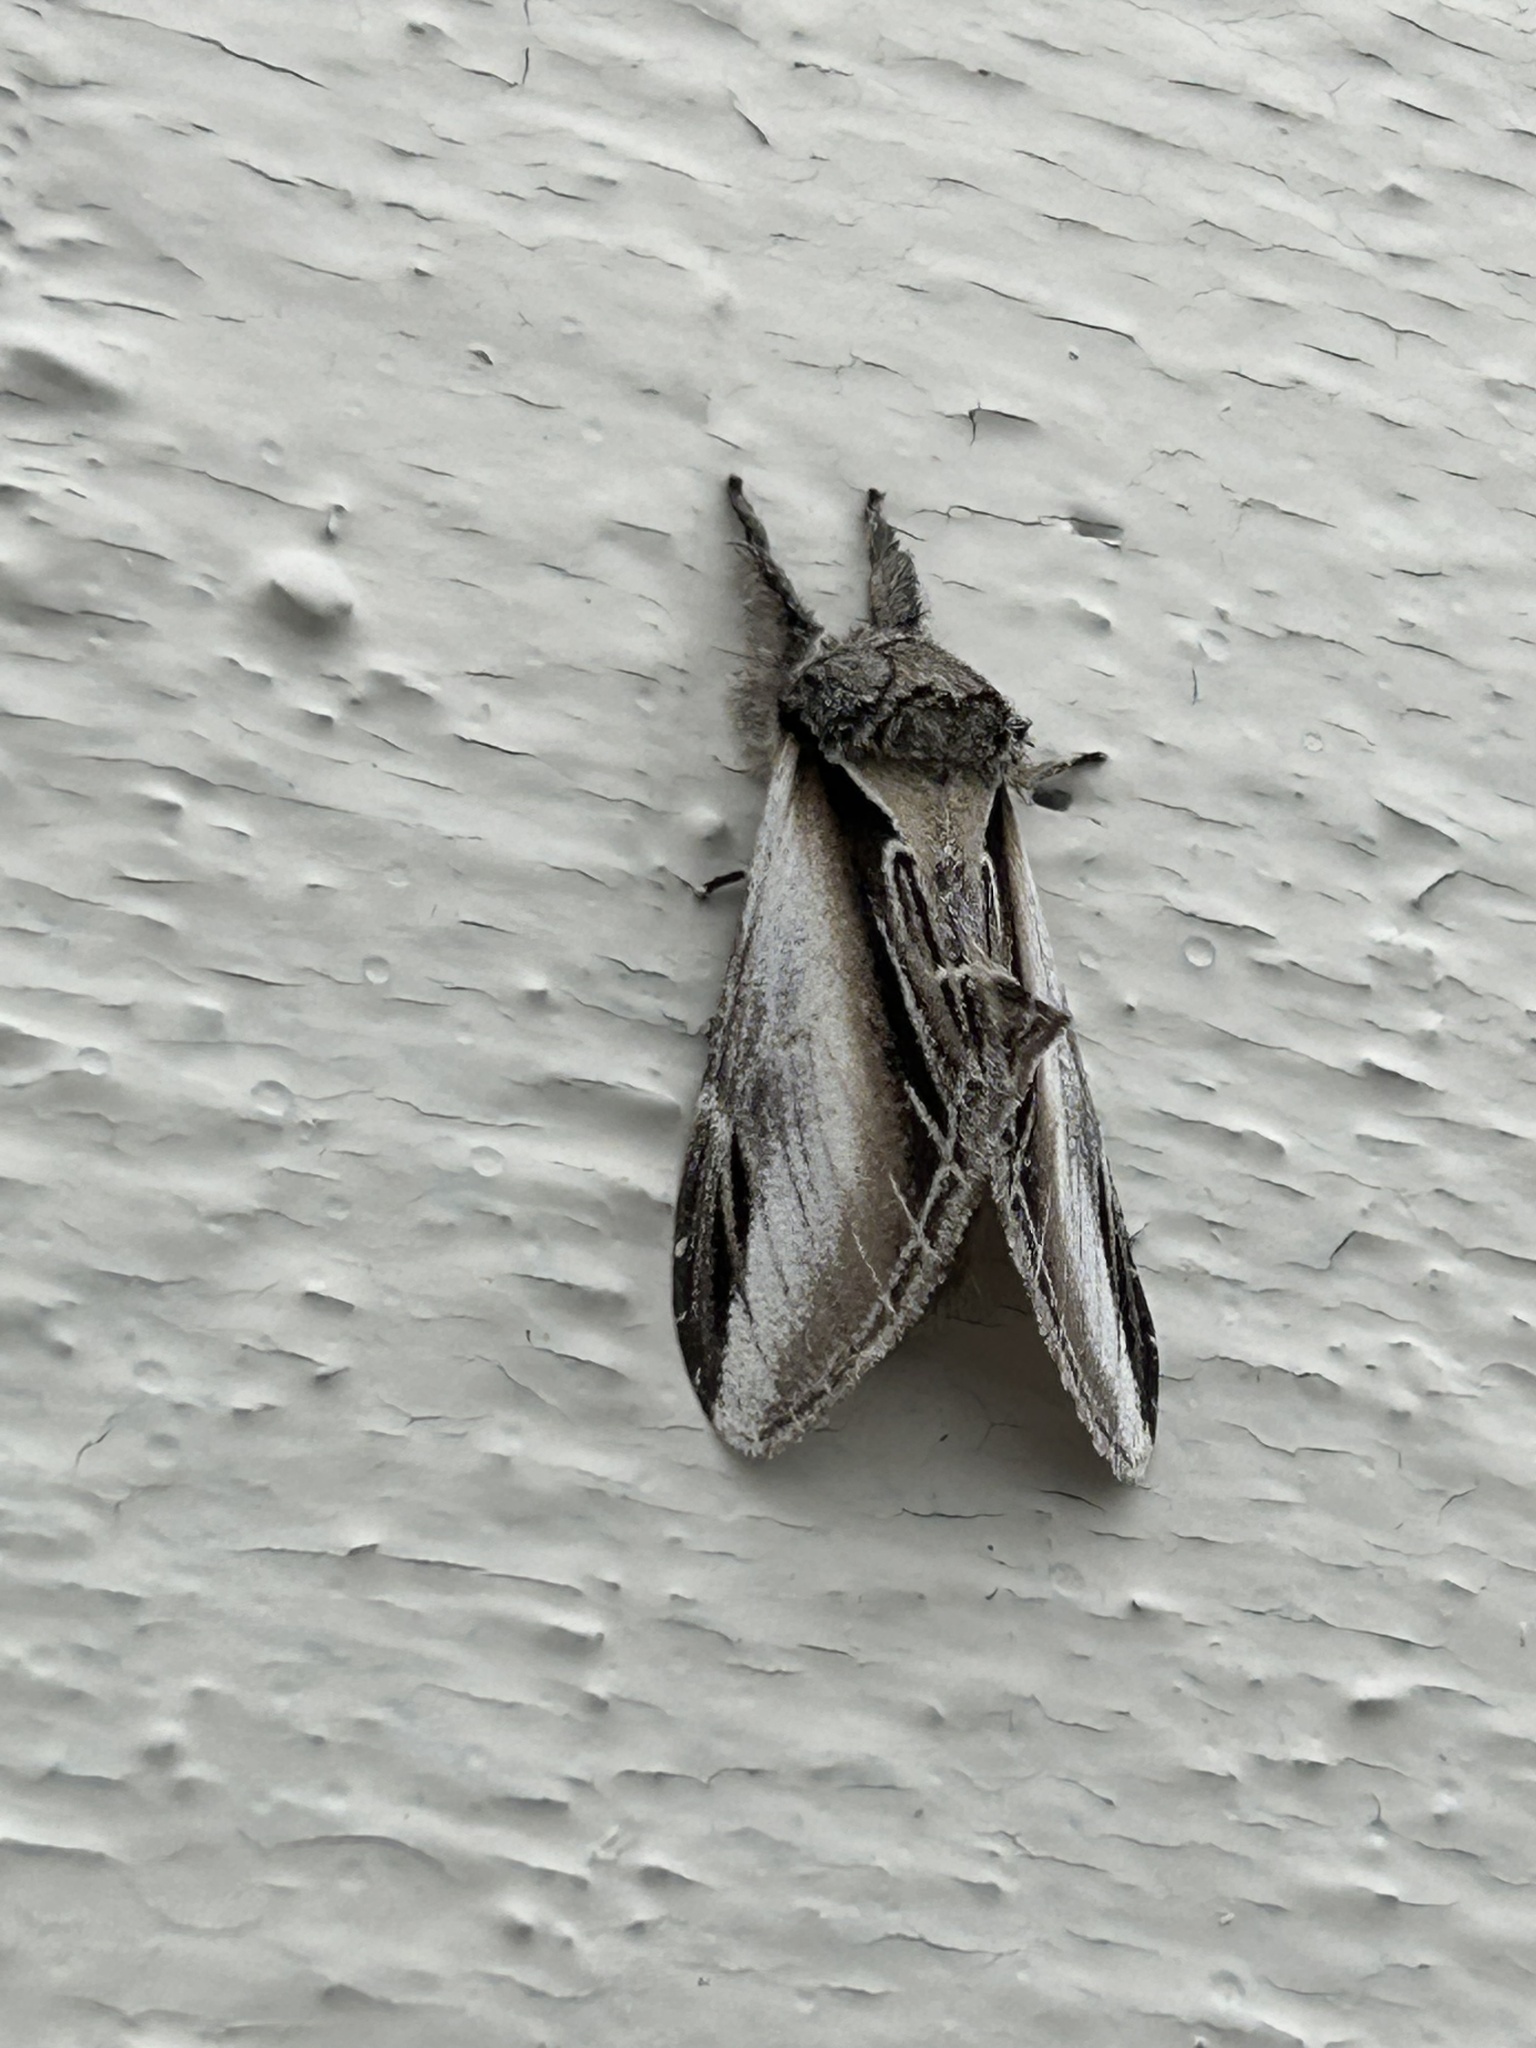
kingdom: Animalia
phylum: Arthropoda
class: Insecta
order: Lepidoptera
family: Notodontidae
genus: Pheosia
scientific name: Pheosia rimosa
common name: Black-rimmed prominent
